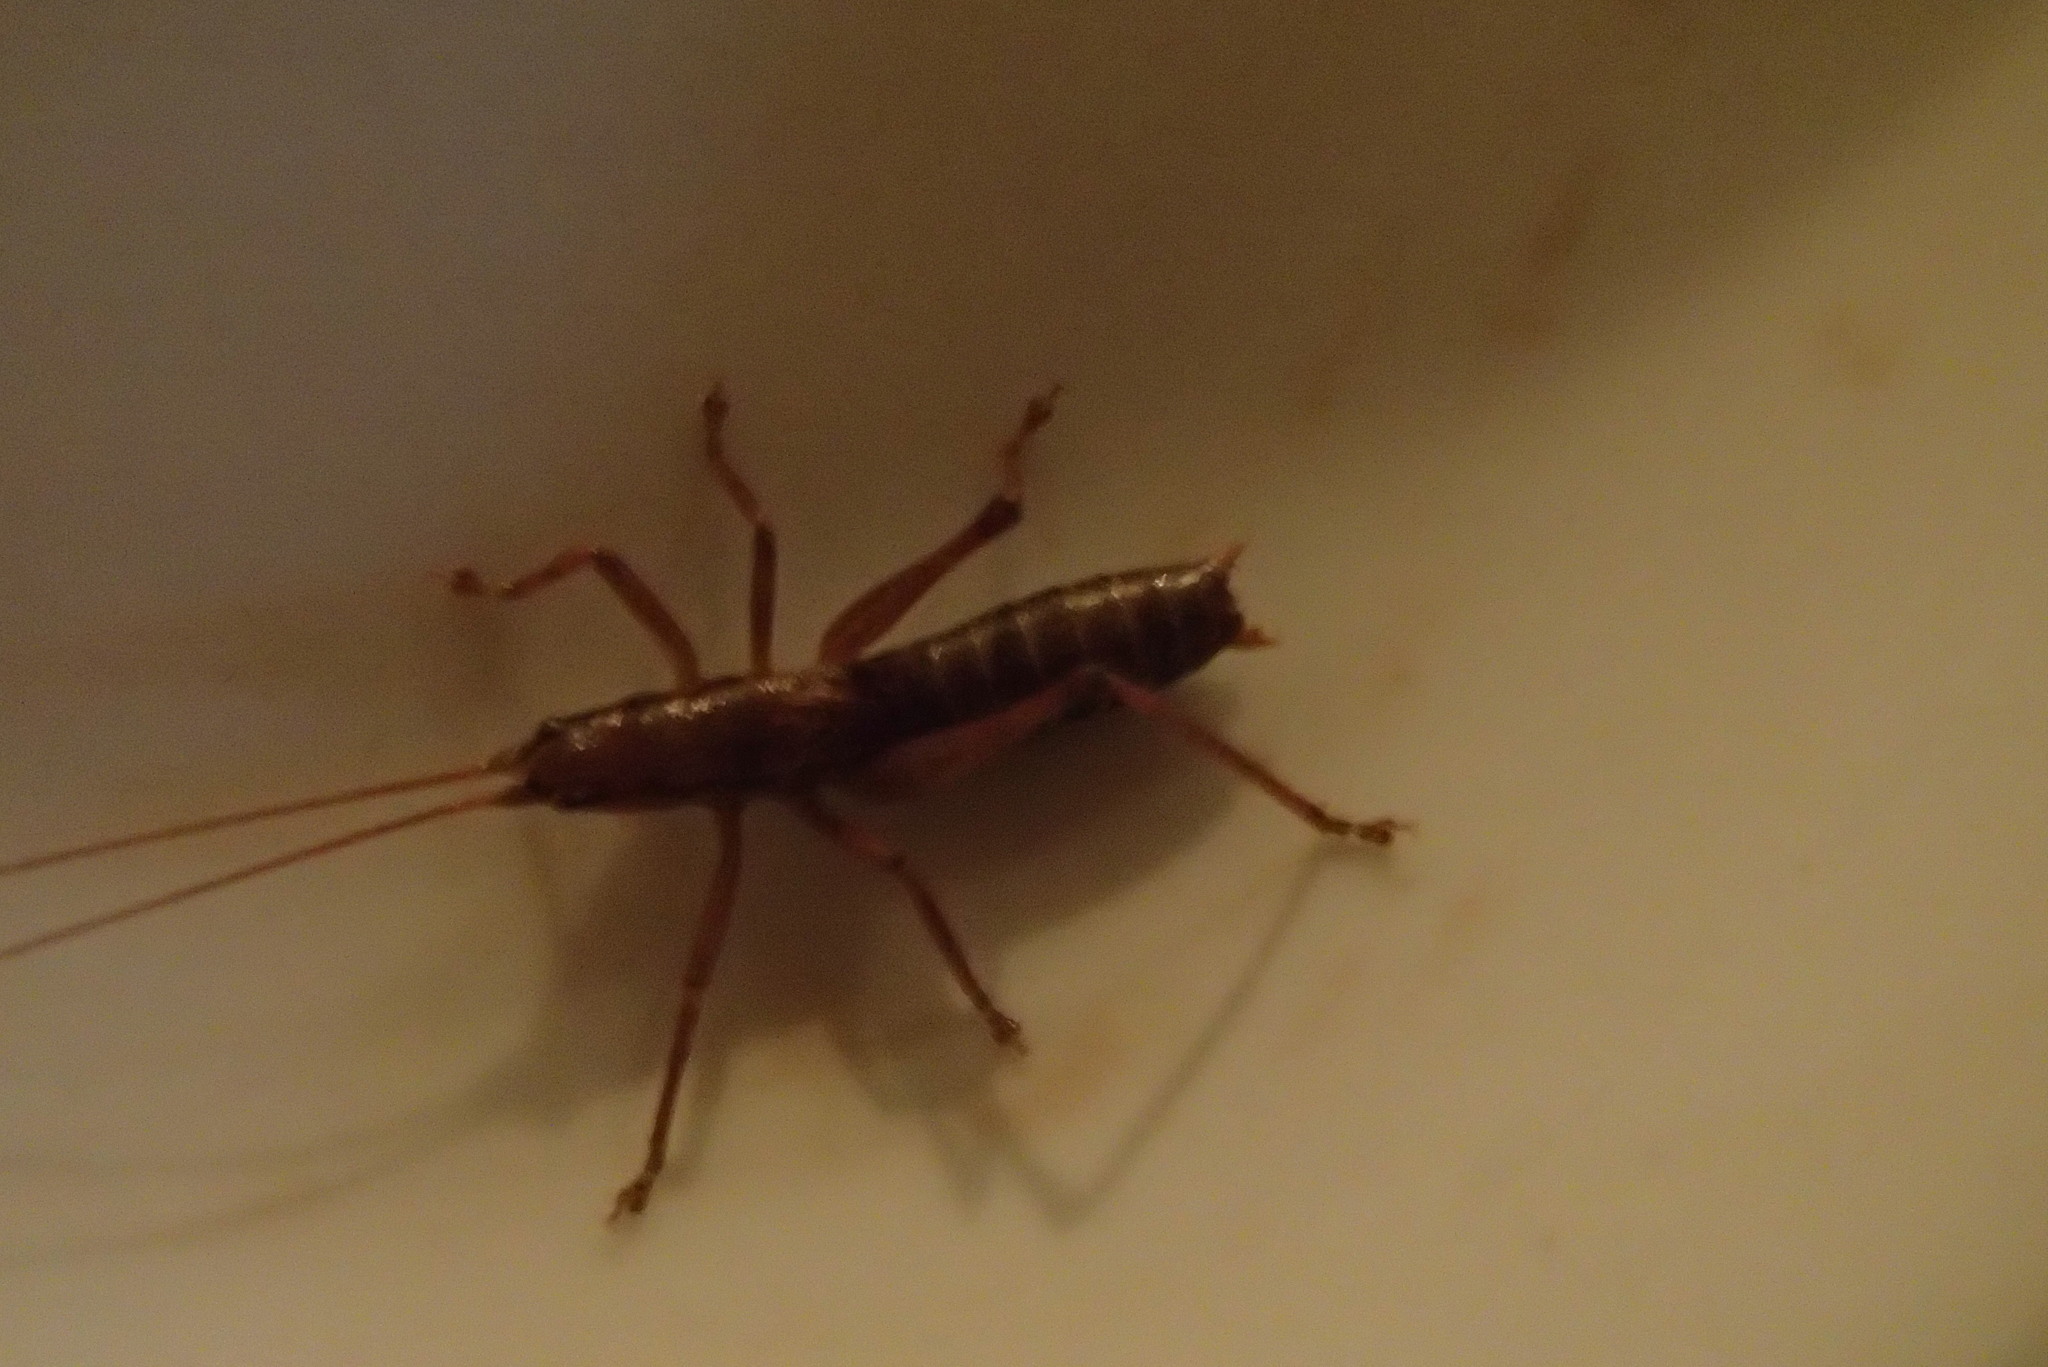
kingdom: Animalia
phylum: Arthropoda
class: Insecta
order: Orthoptera
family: Tettigoniidae
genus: Coptaspis
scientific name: Coptaspis brevipennis
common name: Sidney woodland katydid
